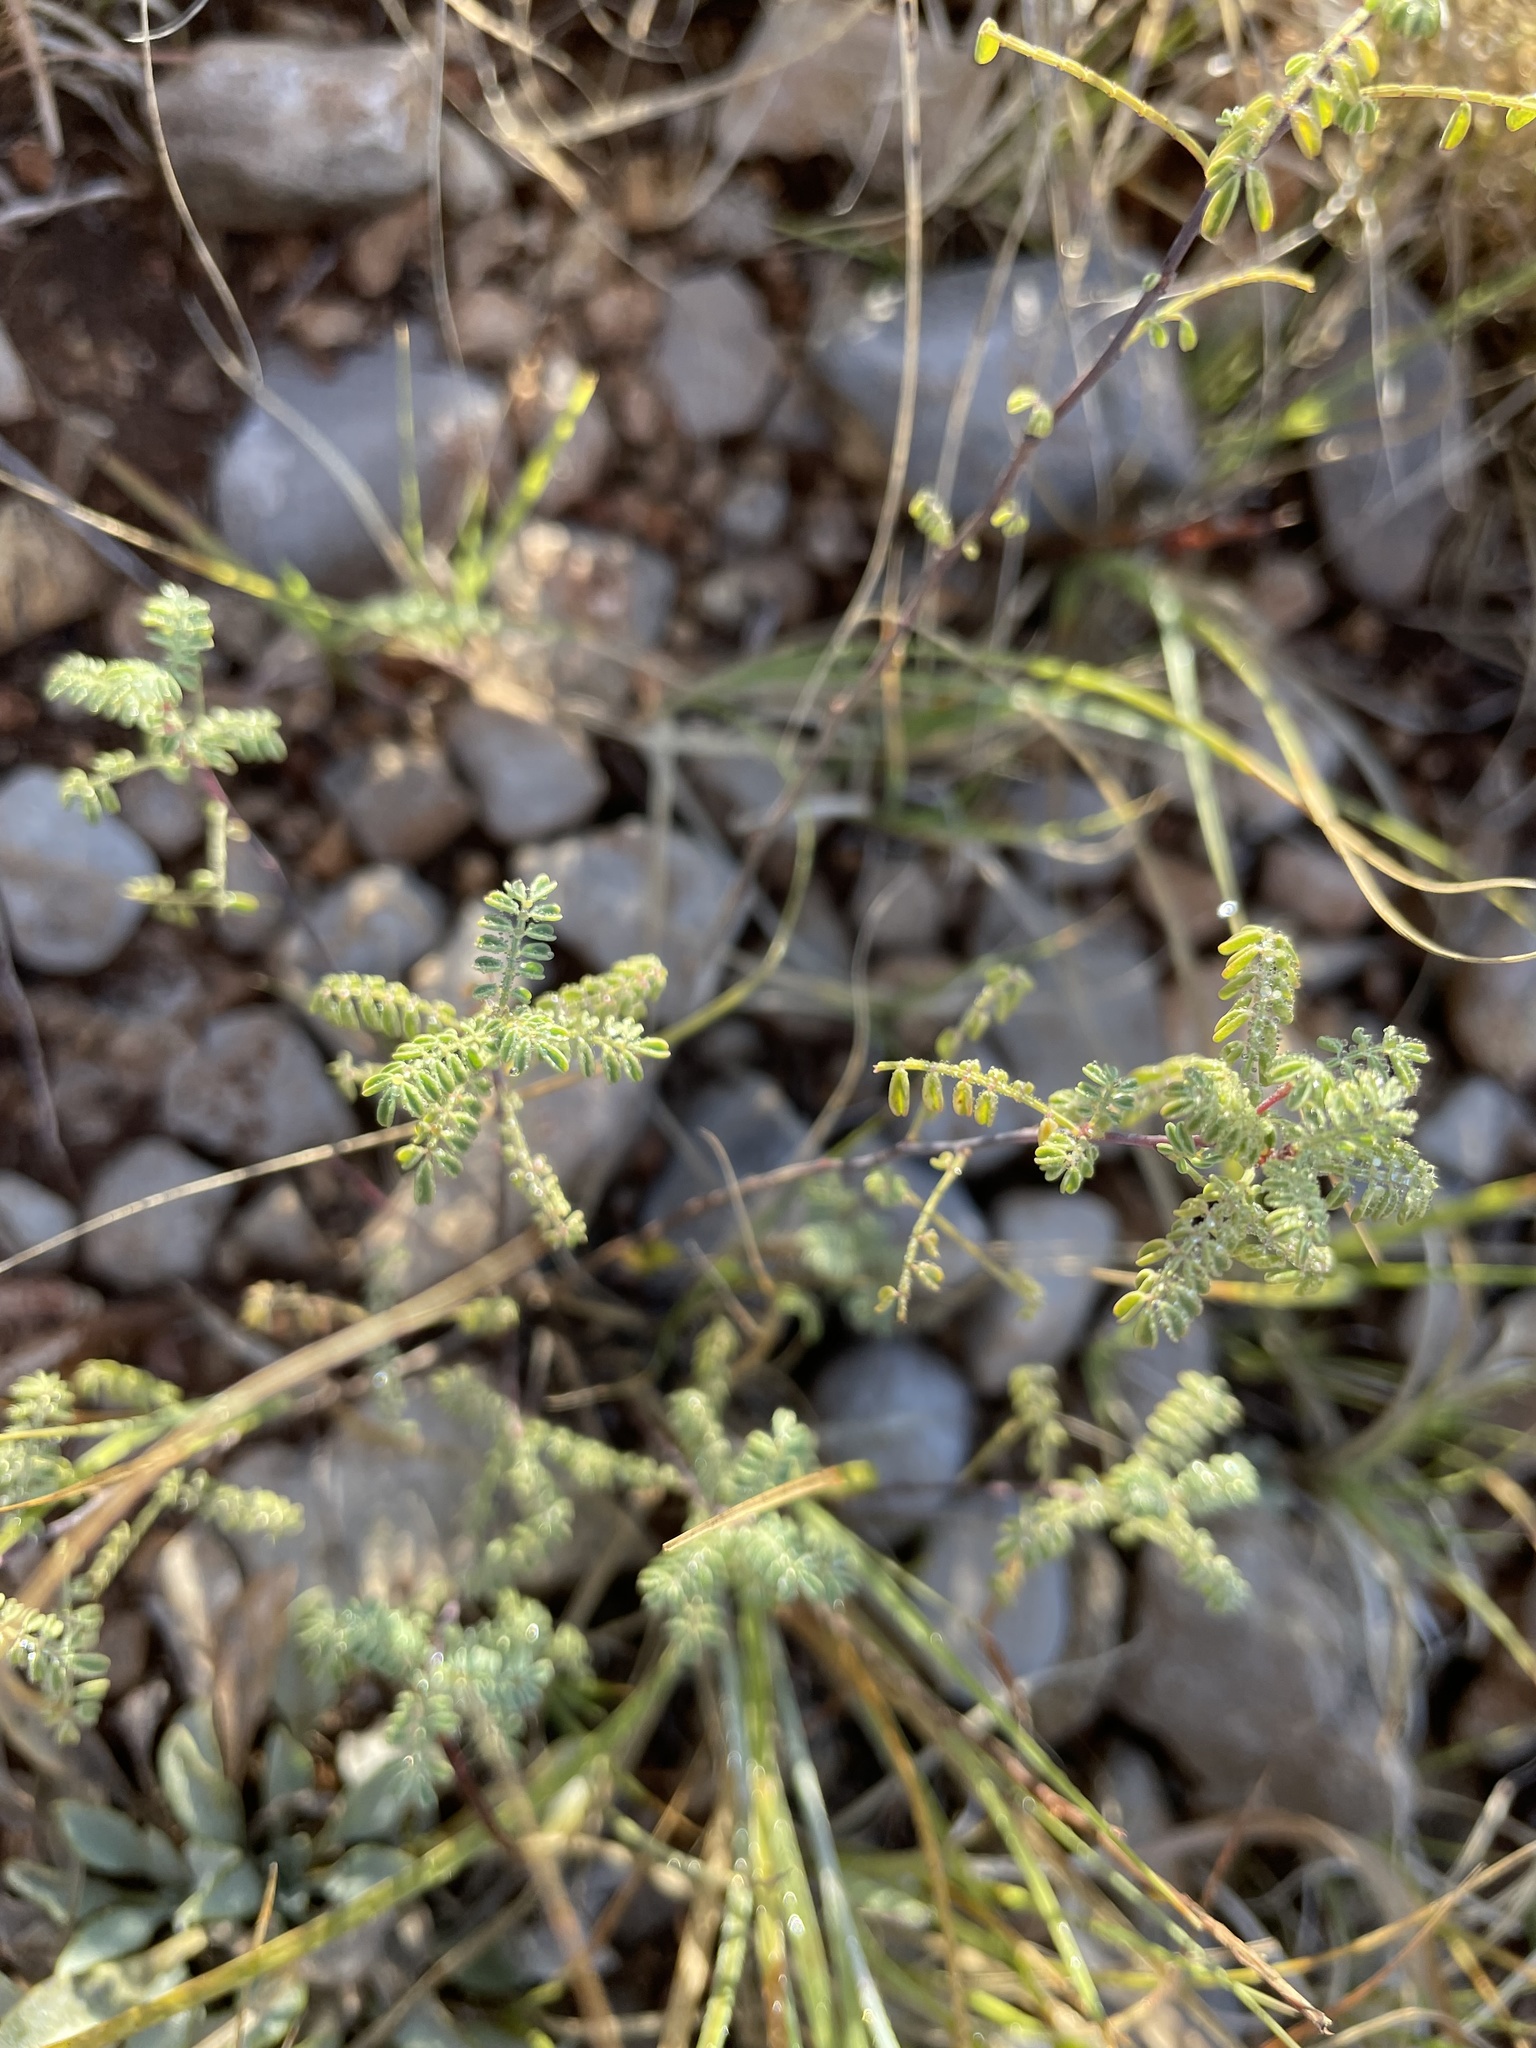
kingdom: Plantae
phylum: Tracheophyta
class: Magnoliopsida
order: Fabales
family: Fabaceae
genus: Dalea
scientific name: Dalea frutescens
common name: Black dalea
